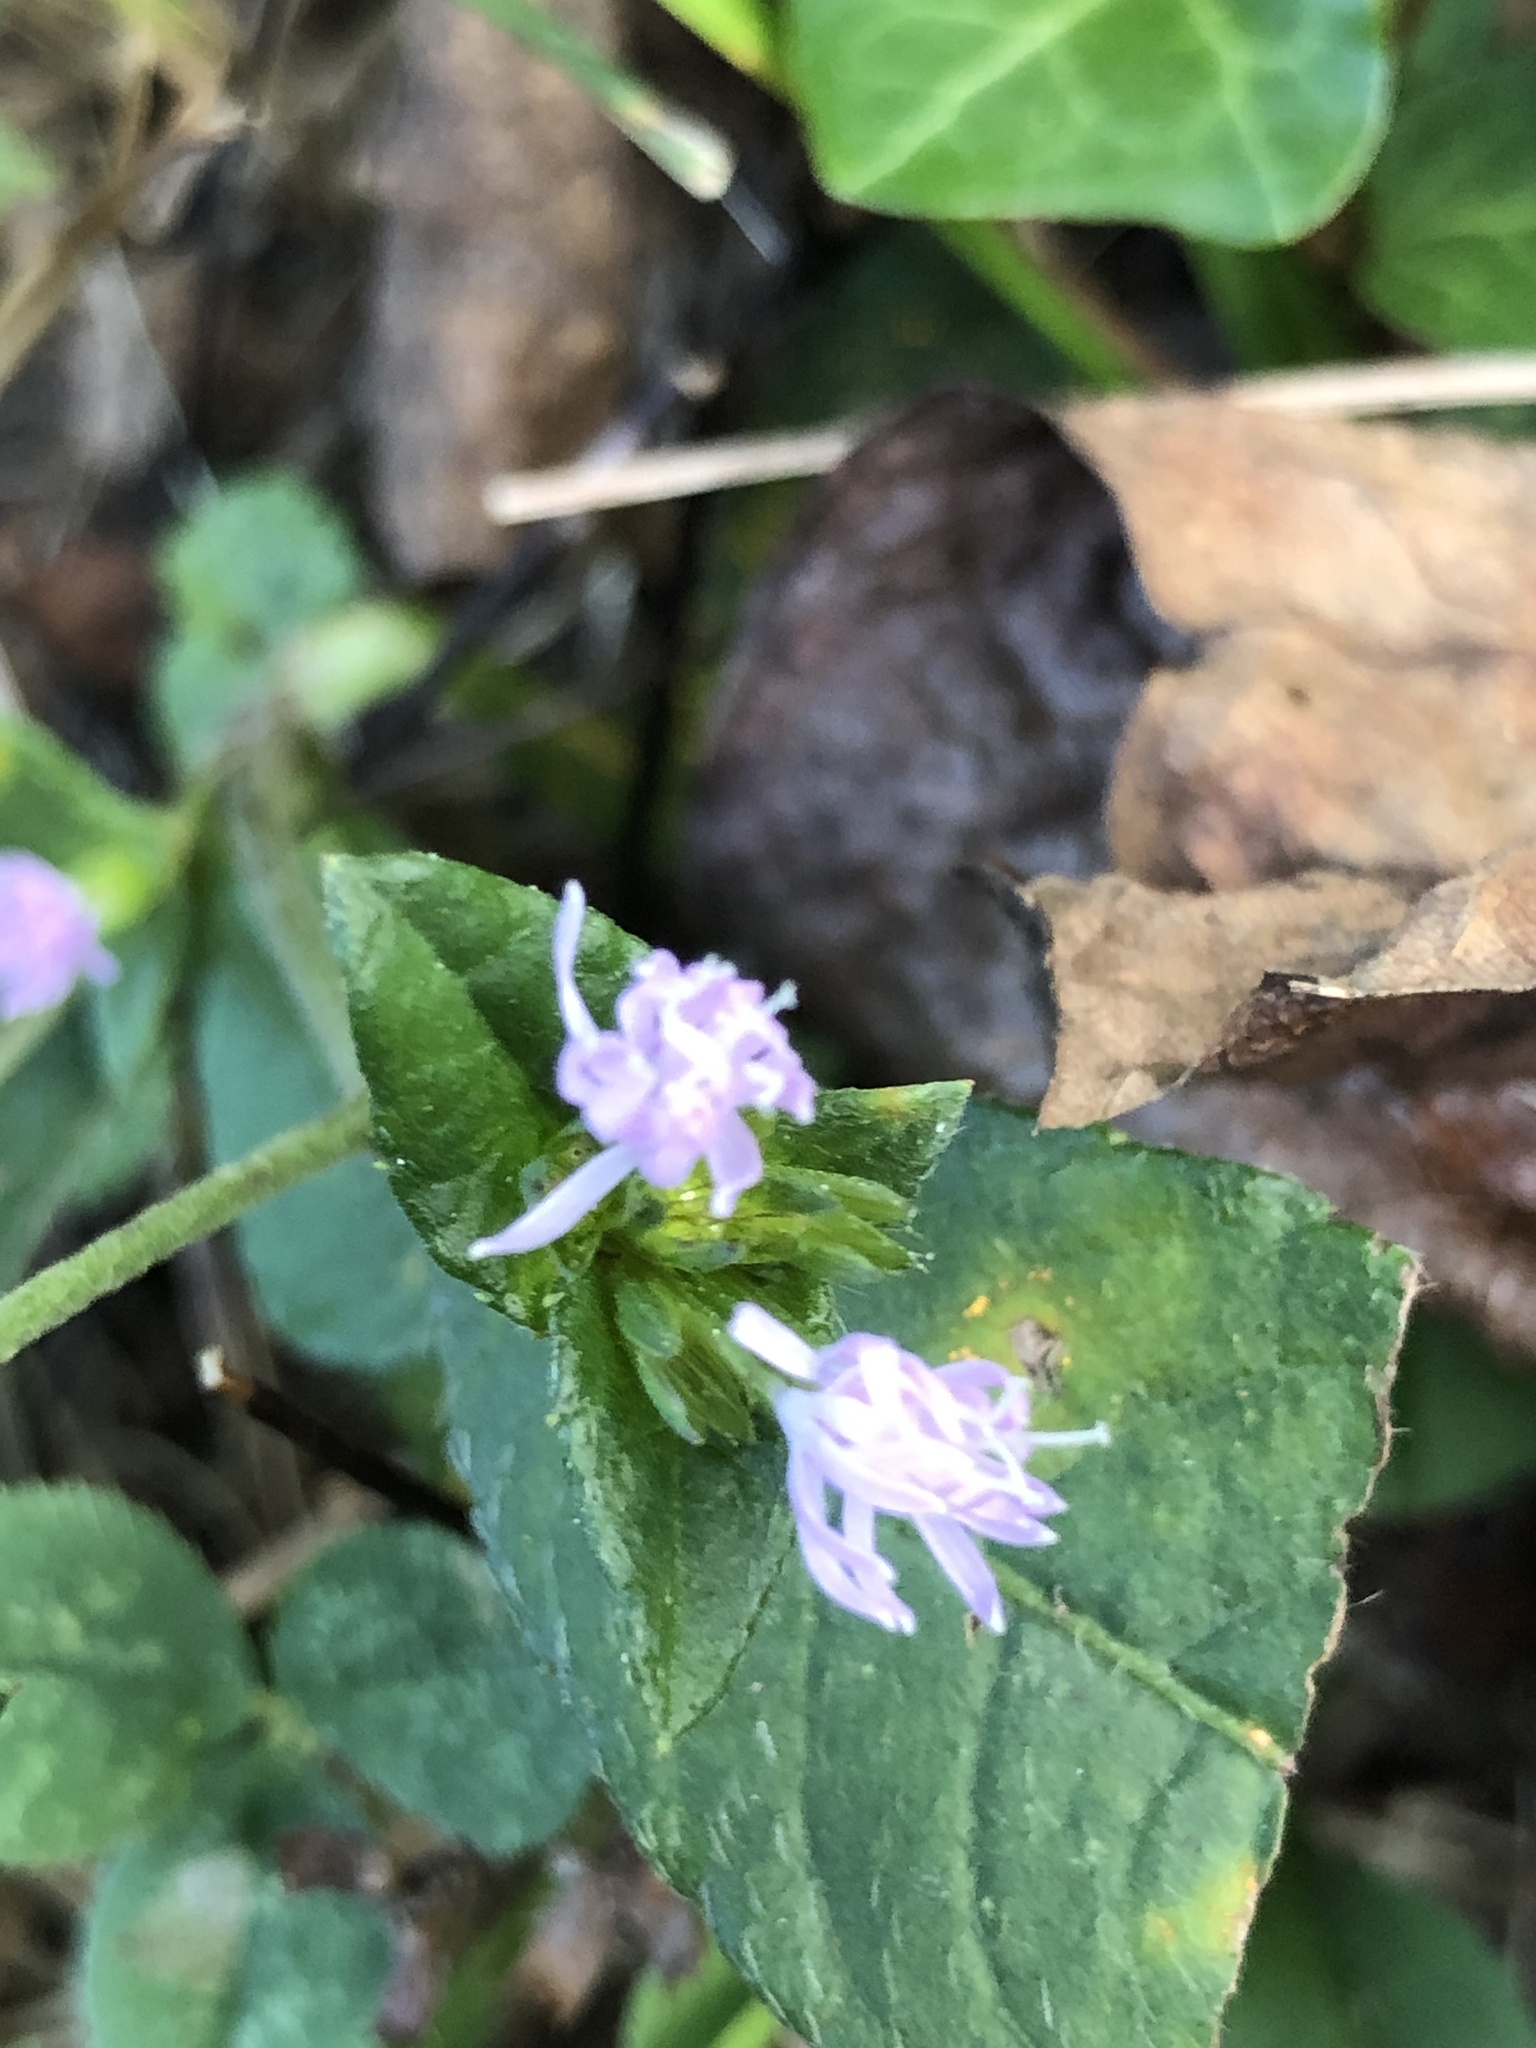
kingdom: Plantae
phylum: Tracheophyta
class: Magnoliopsida
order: Asterales
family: Asteraceae
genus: Elephantopus
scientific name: Elephantopus carolinianus
